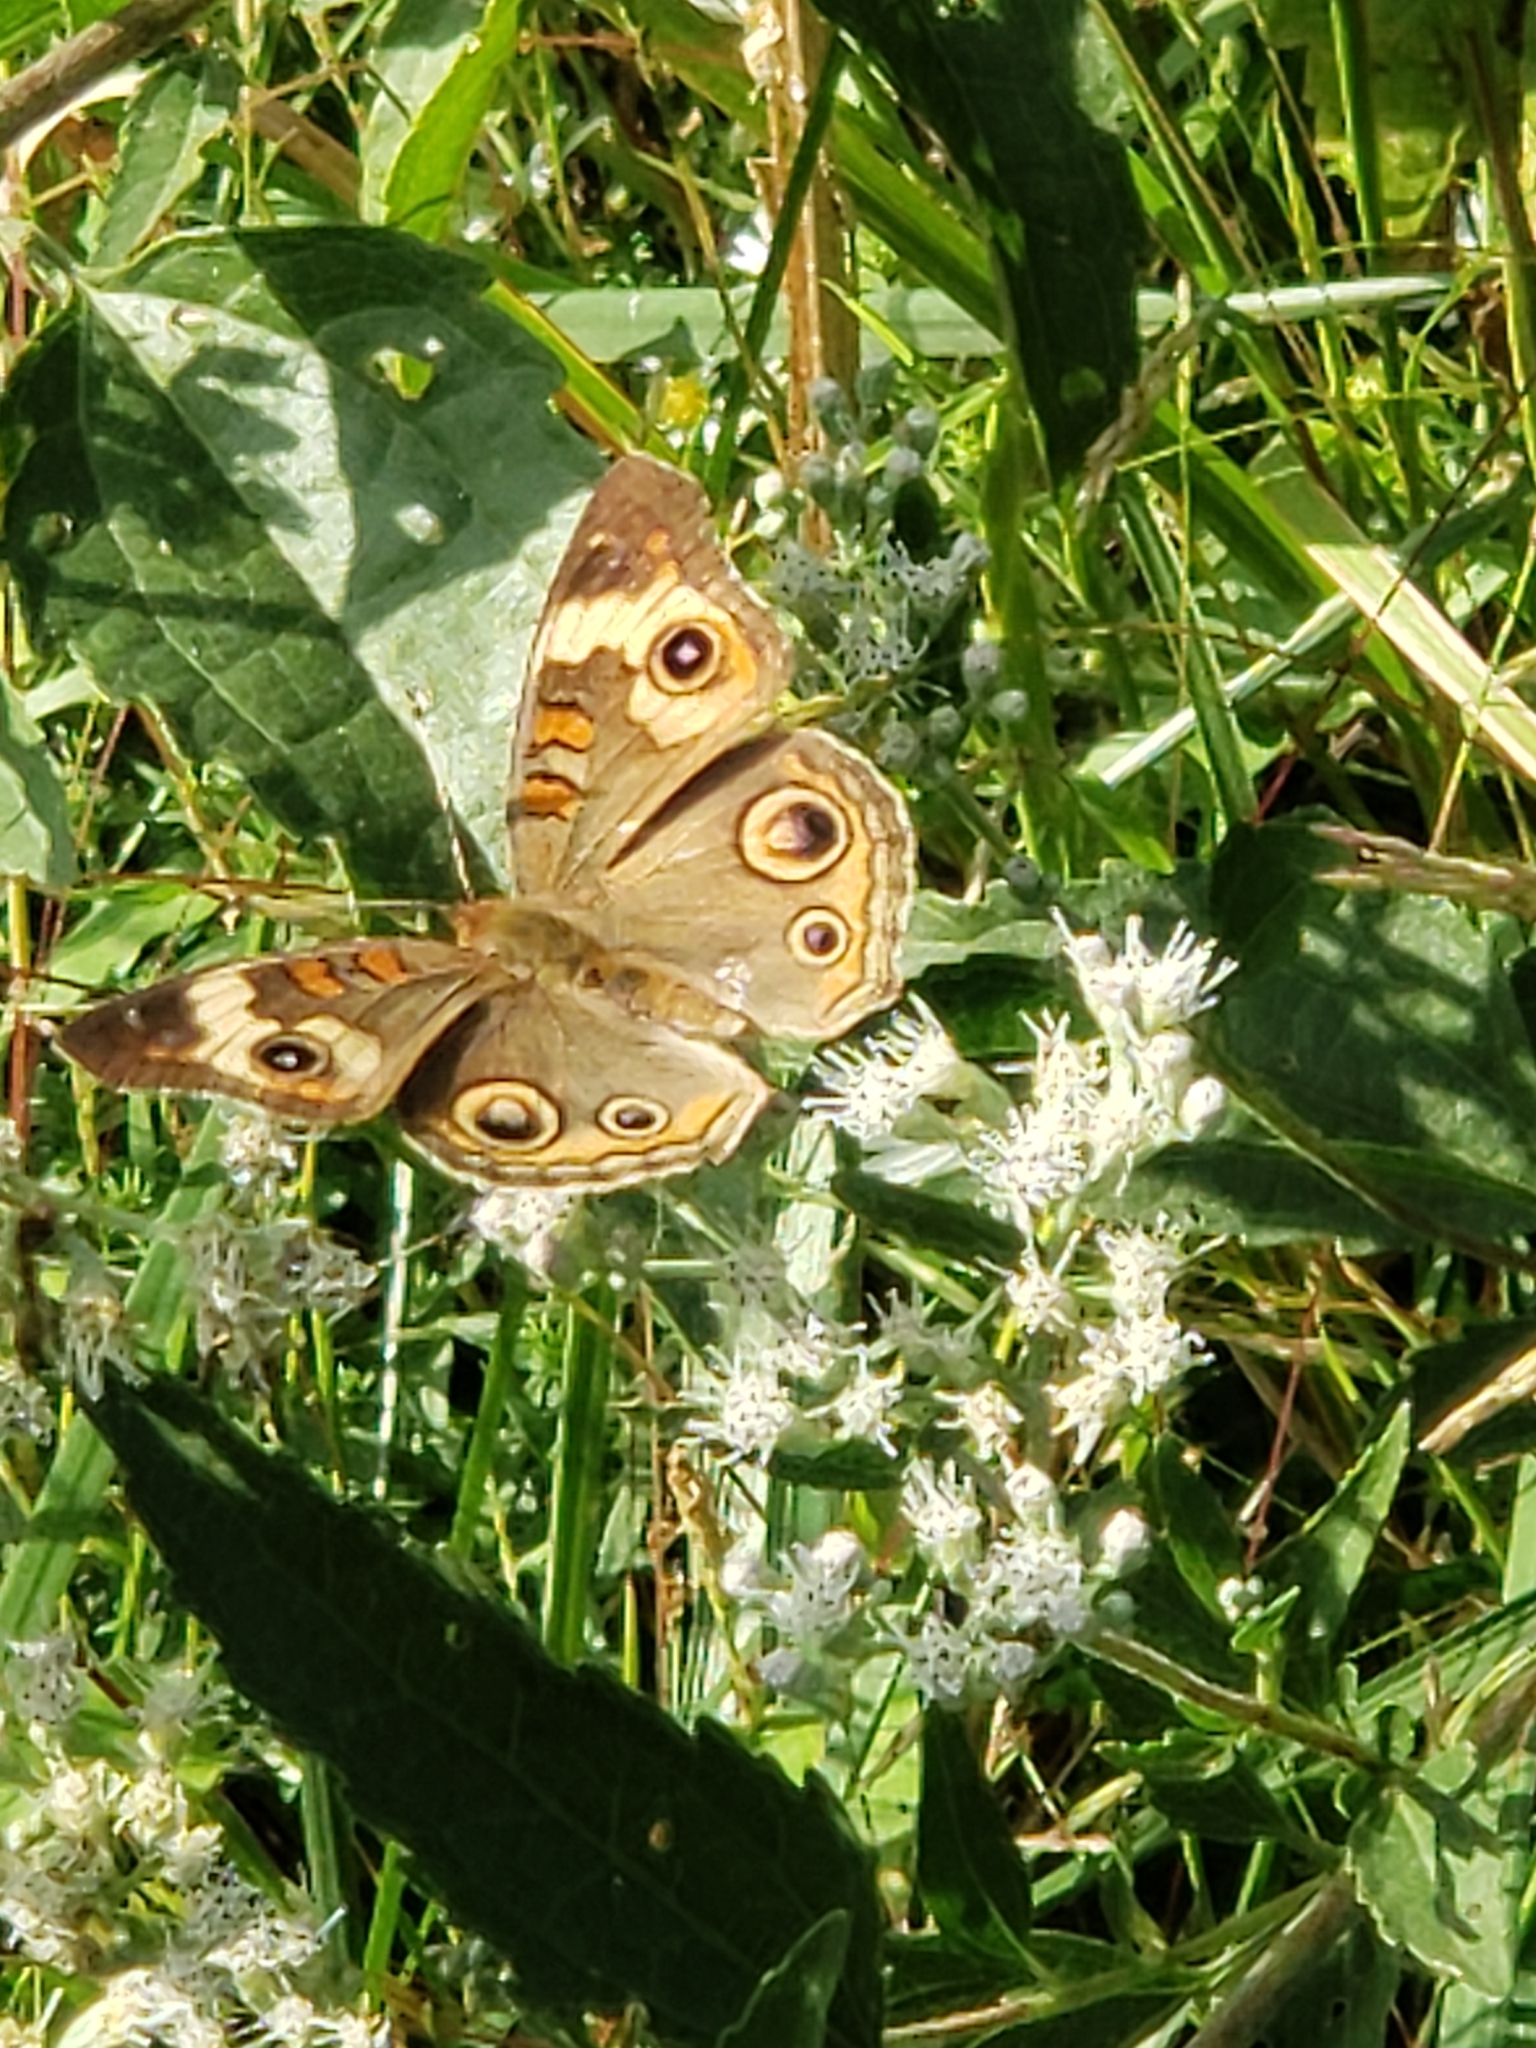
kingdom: Animalia
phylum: Arthropoda
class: Insecta
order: Lepidoptera
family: Nymphalidae
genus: Junonia
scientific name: Junonia coenia
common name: Common buckeye
